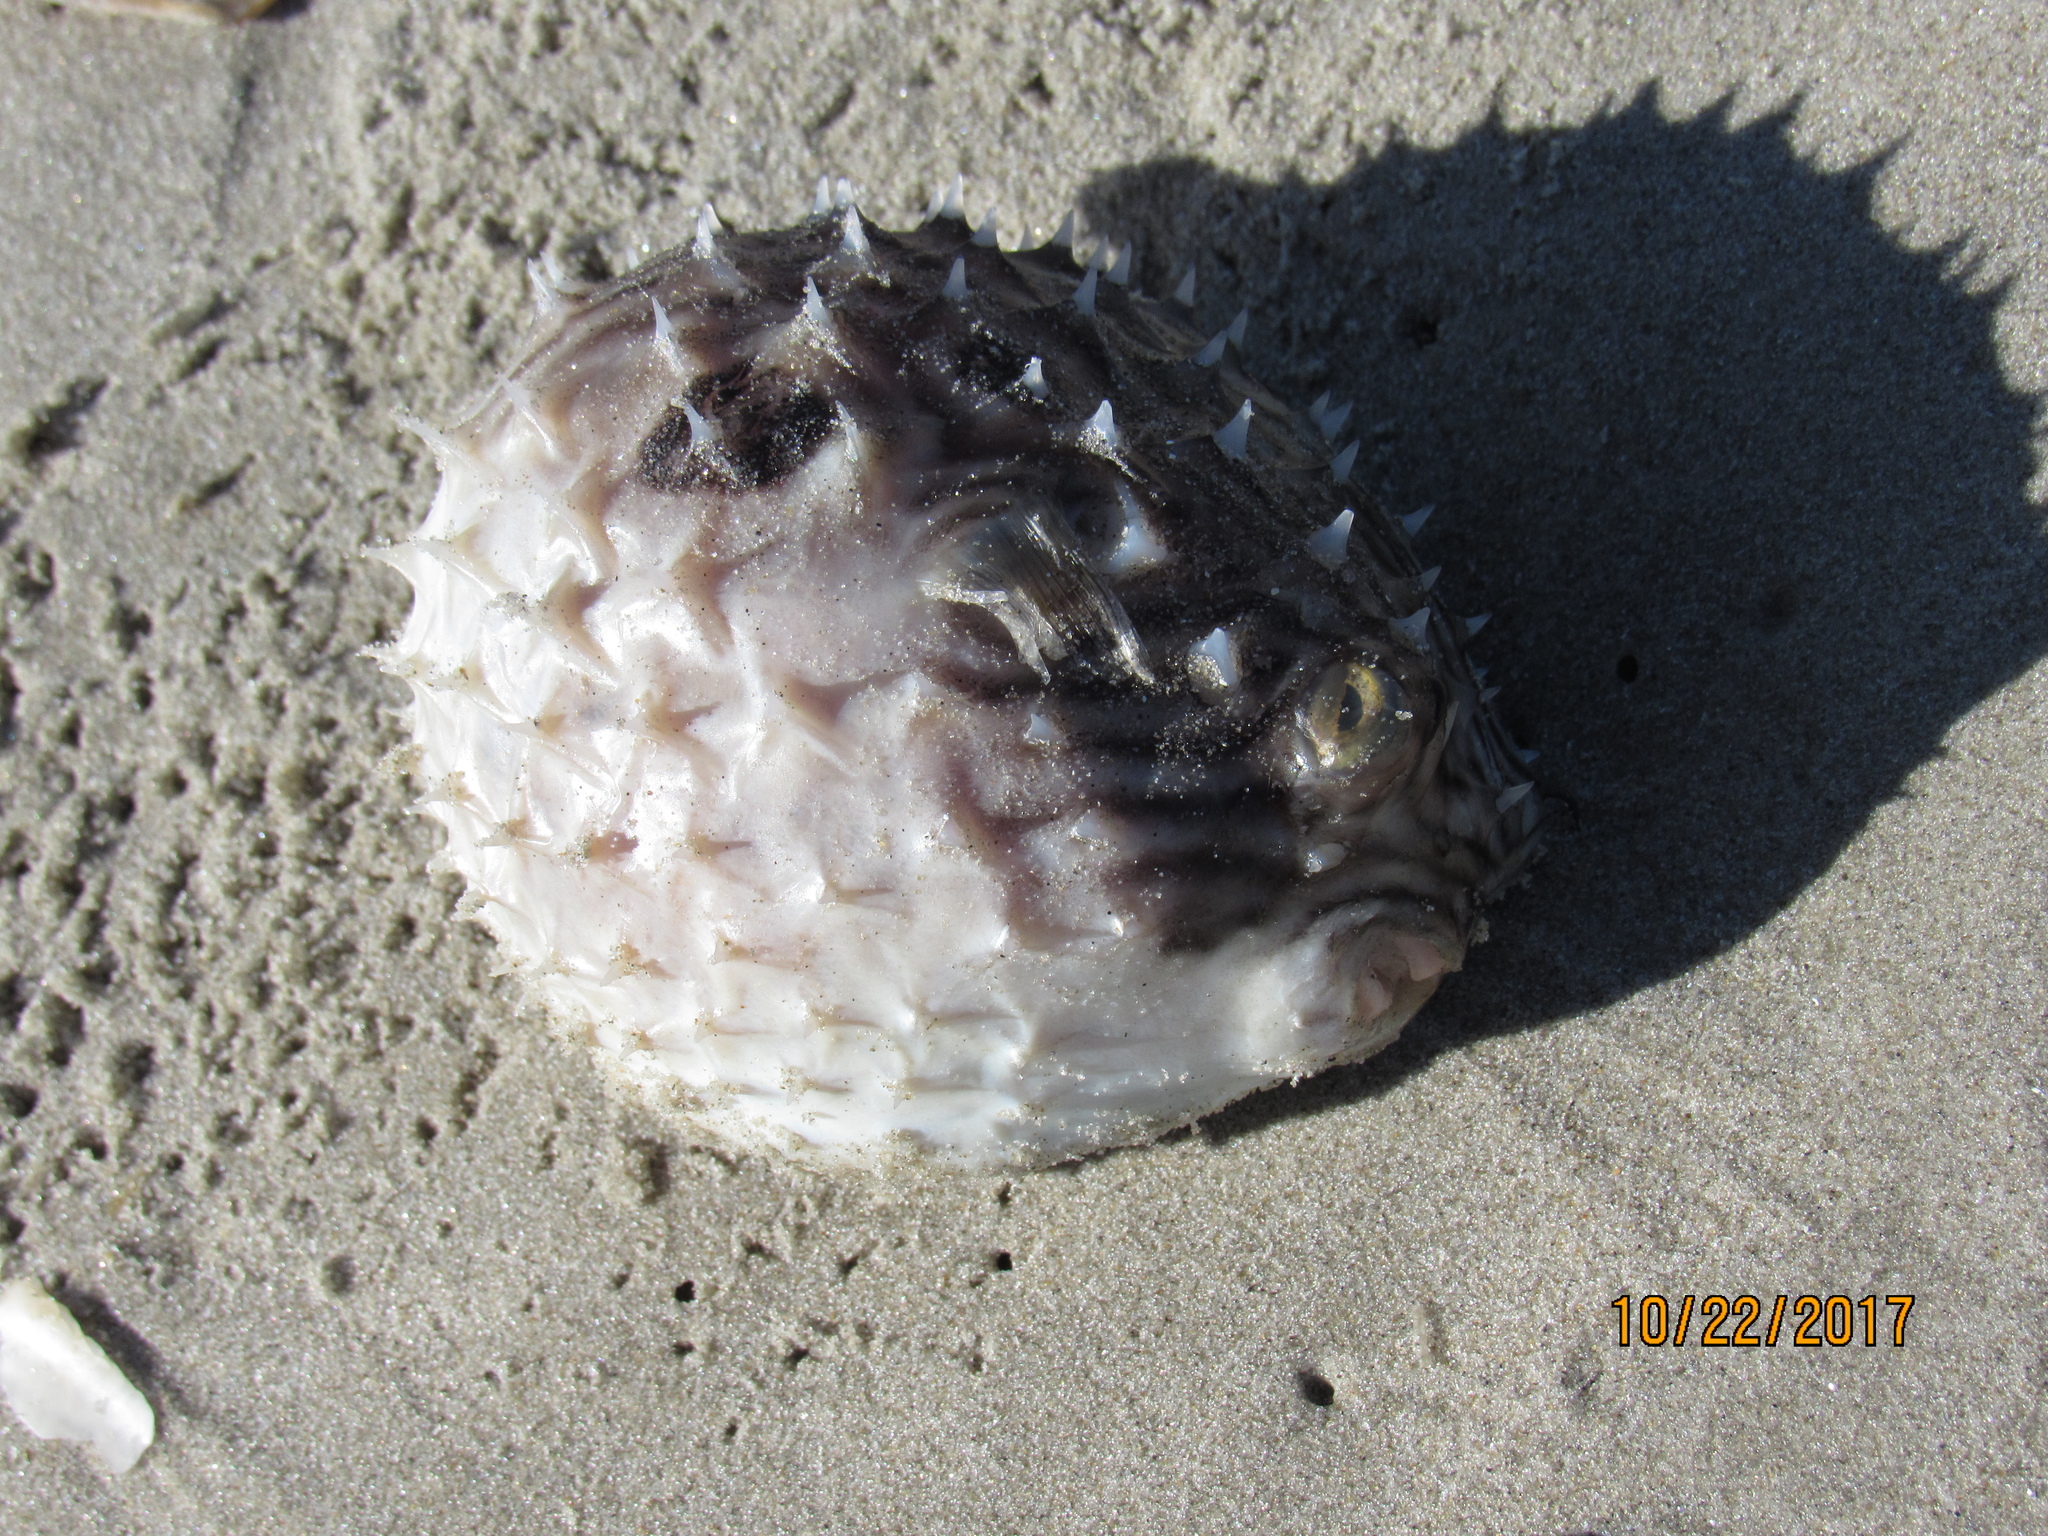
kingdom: Animalia
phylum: Chordata
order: Tetraodontiformes
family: Diodontidae
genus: Chilomycterus
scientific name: Chilomycterus schoepfii
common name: Striped burrfish
